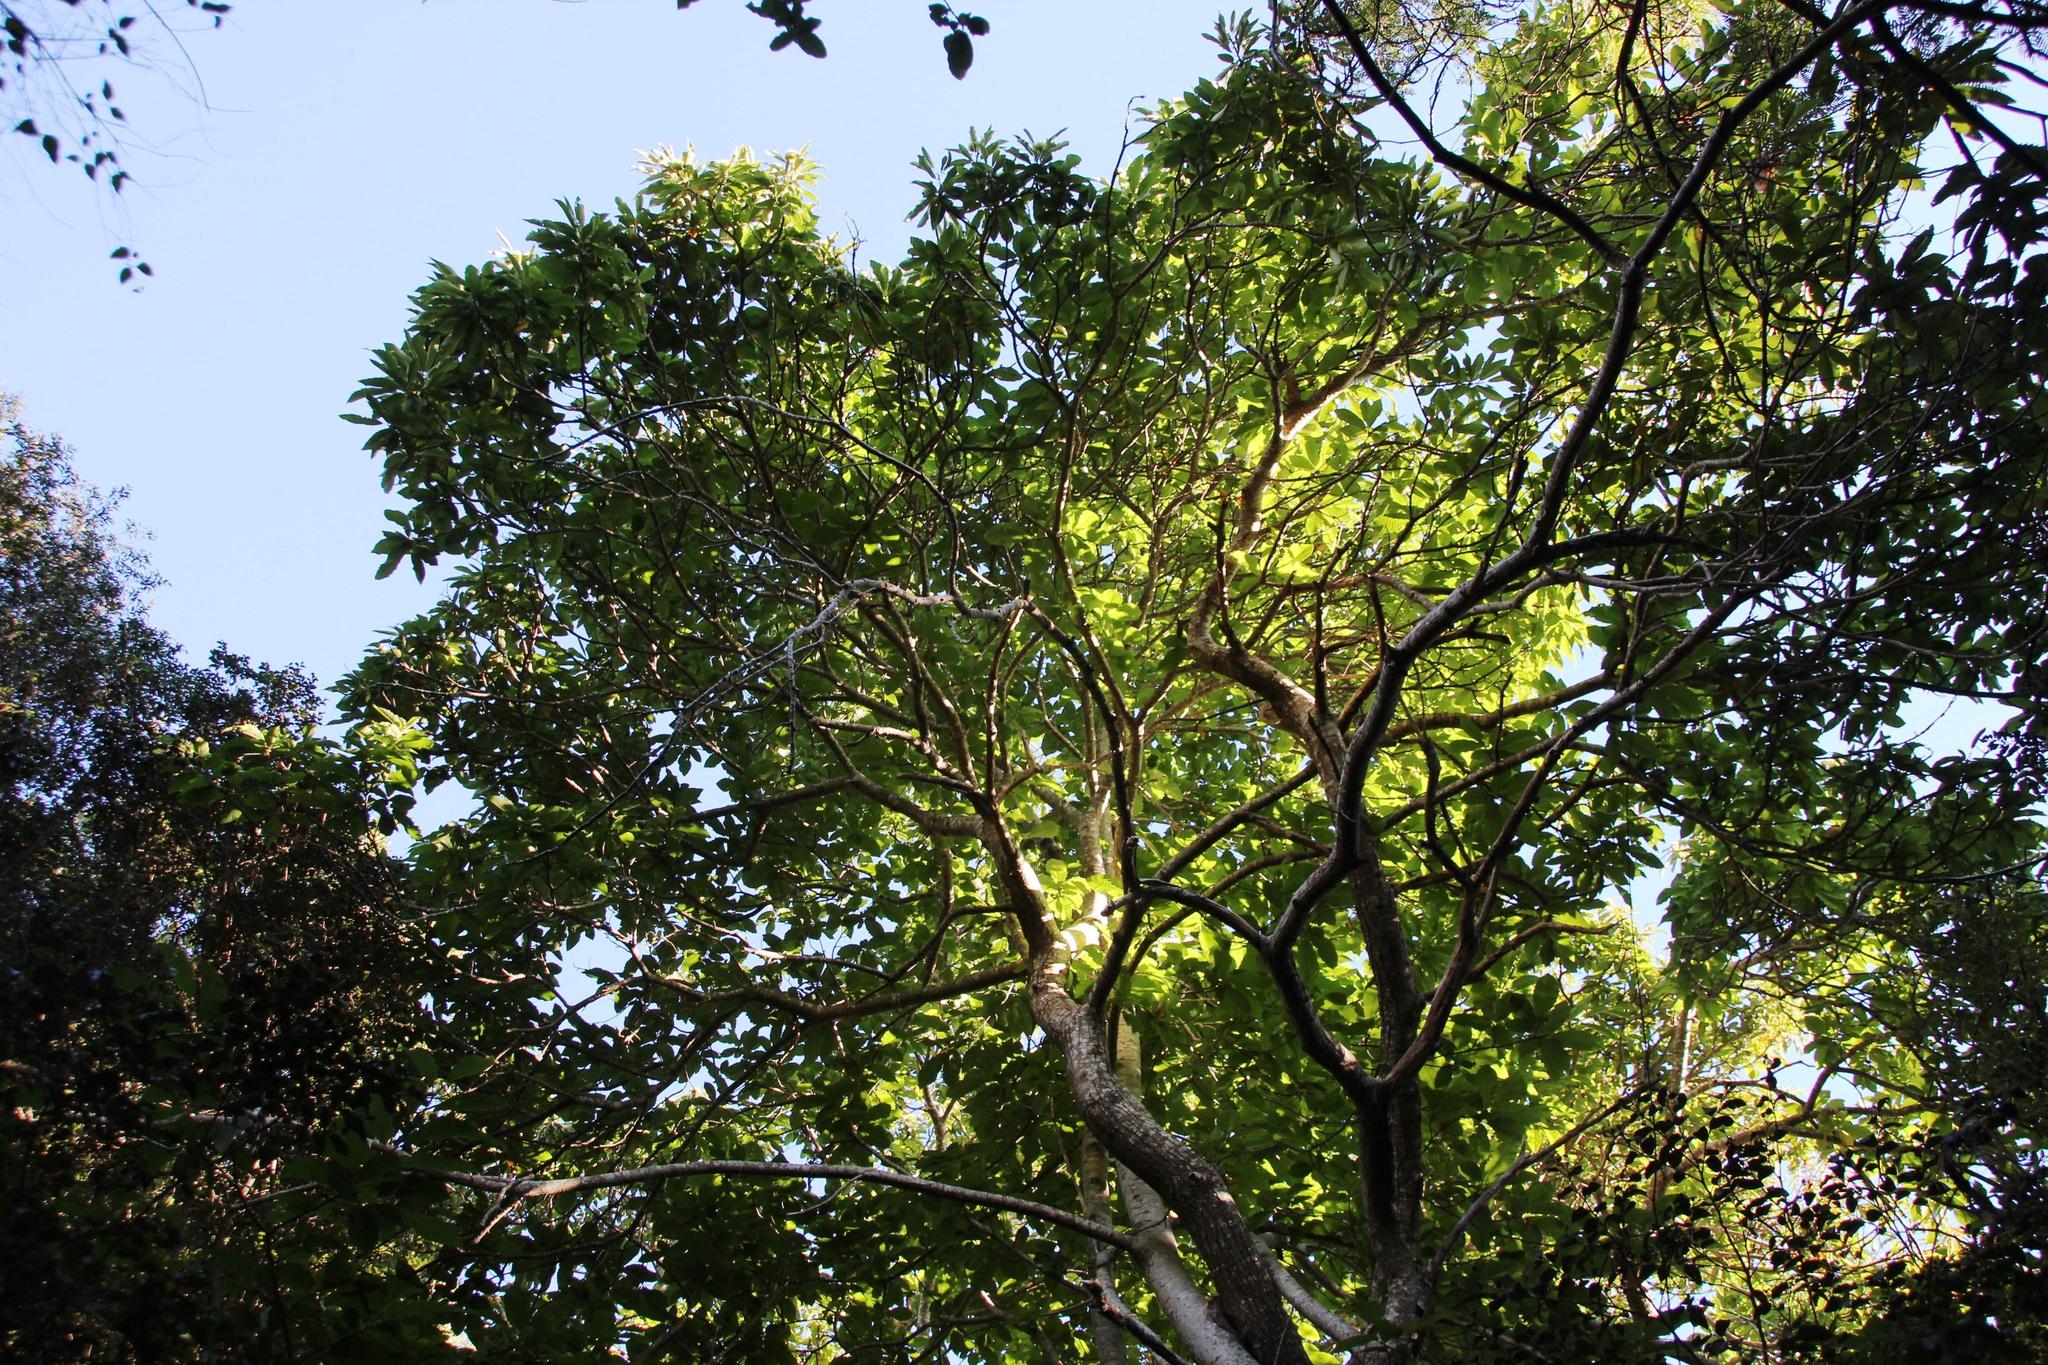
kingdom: Plantae
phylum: Tracheophyta
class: Magnoliopsida
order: Fagales
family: Fagaceae
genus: Castanea
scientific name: Castanea sativa
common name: Sweet chestnut
